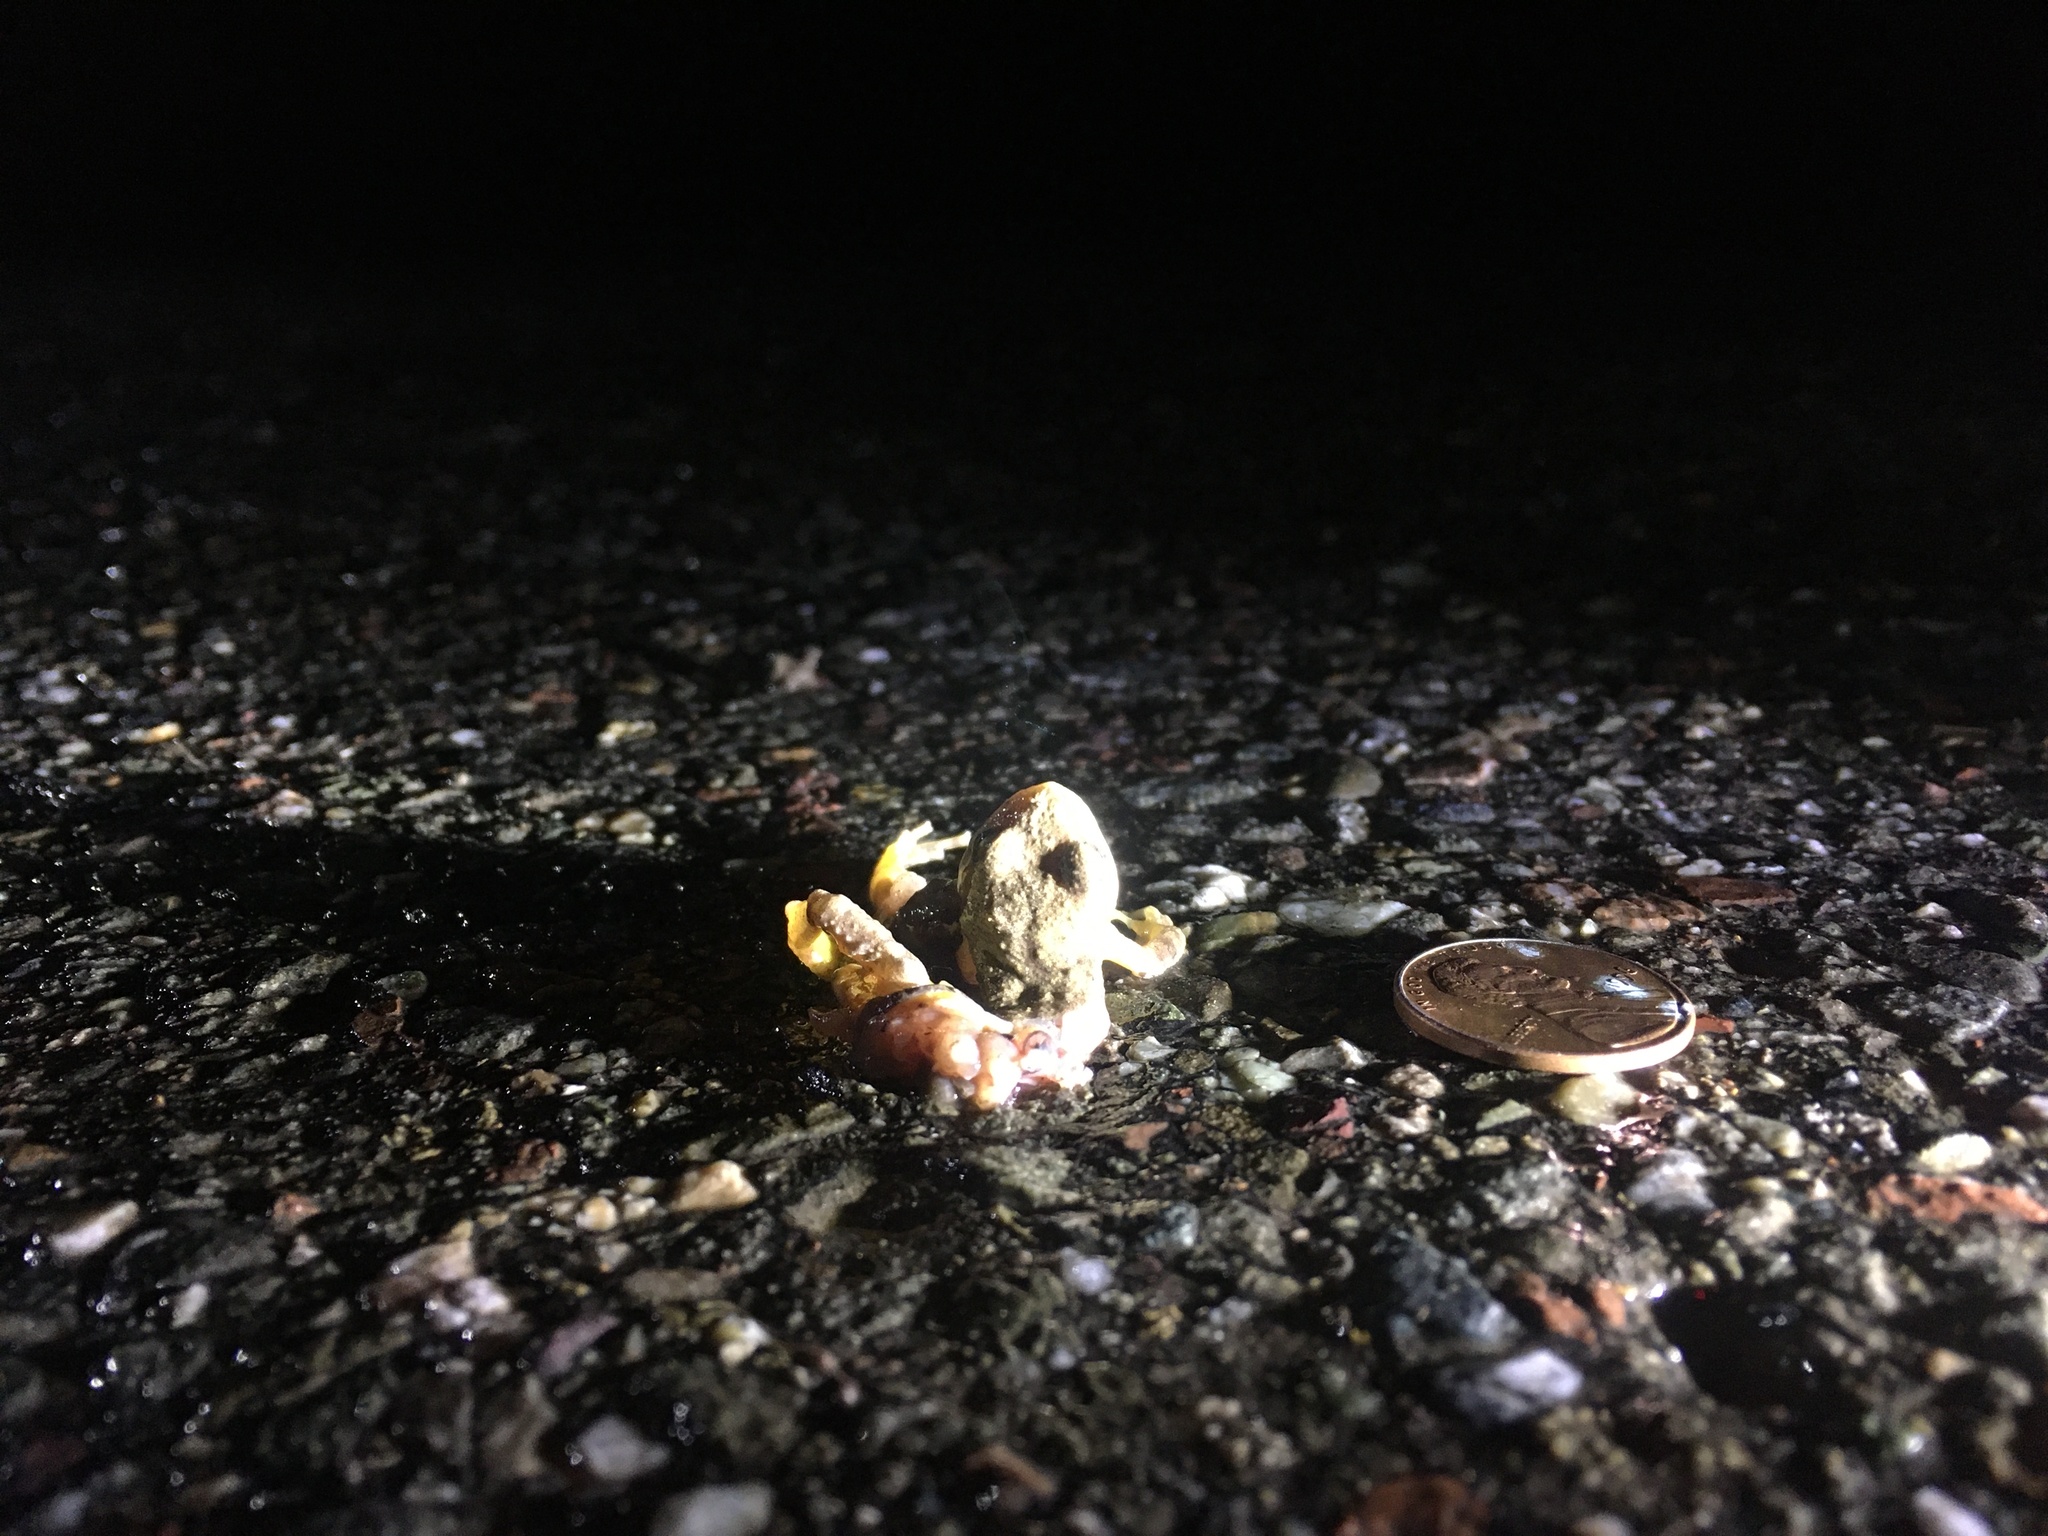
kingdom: Animalia
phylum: Chordata
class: Amphibia
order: Anura
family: Hylidae
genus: Pseudacris
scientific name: Pseudacris regilla
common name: Pacific chorus frog
